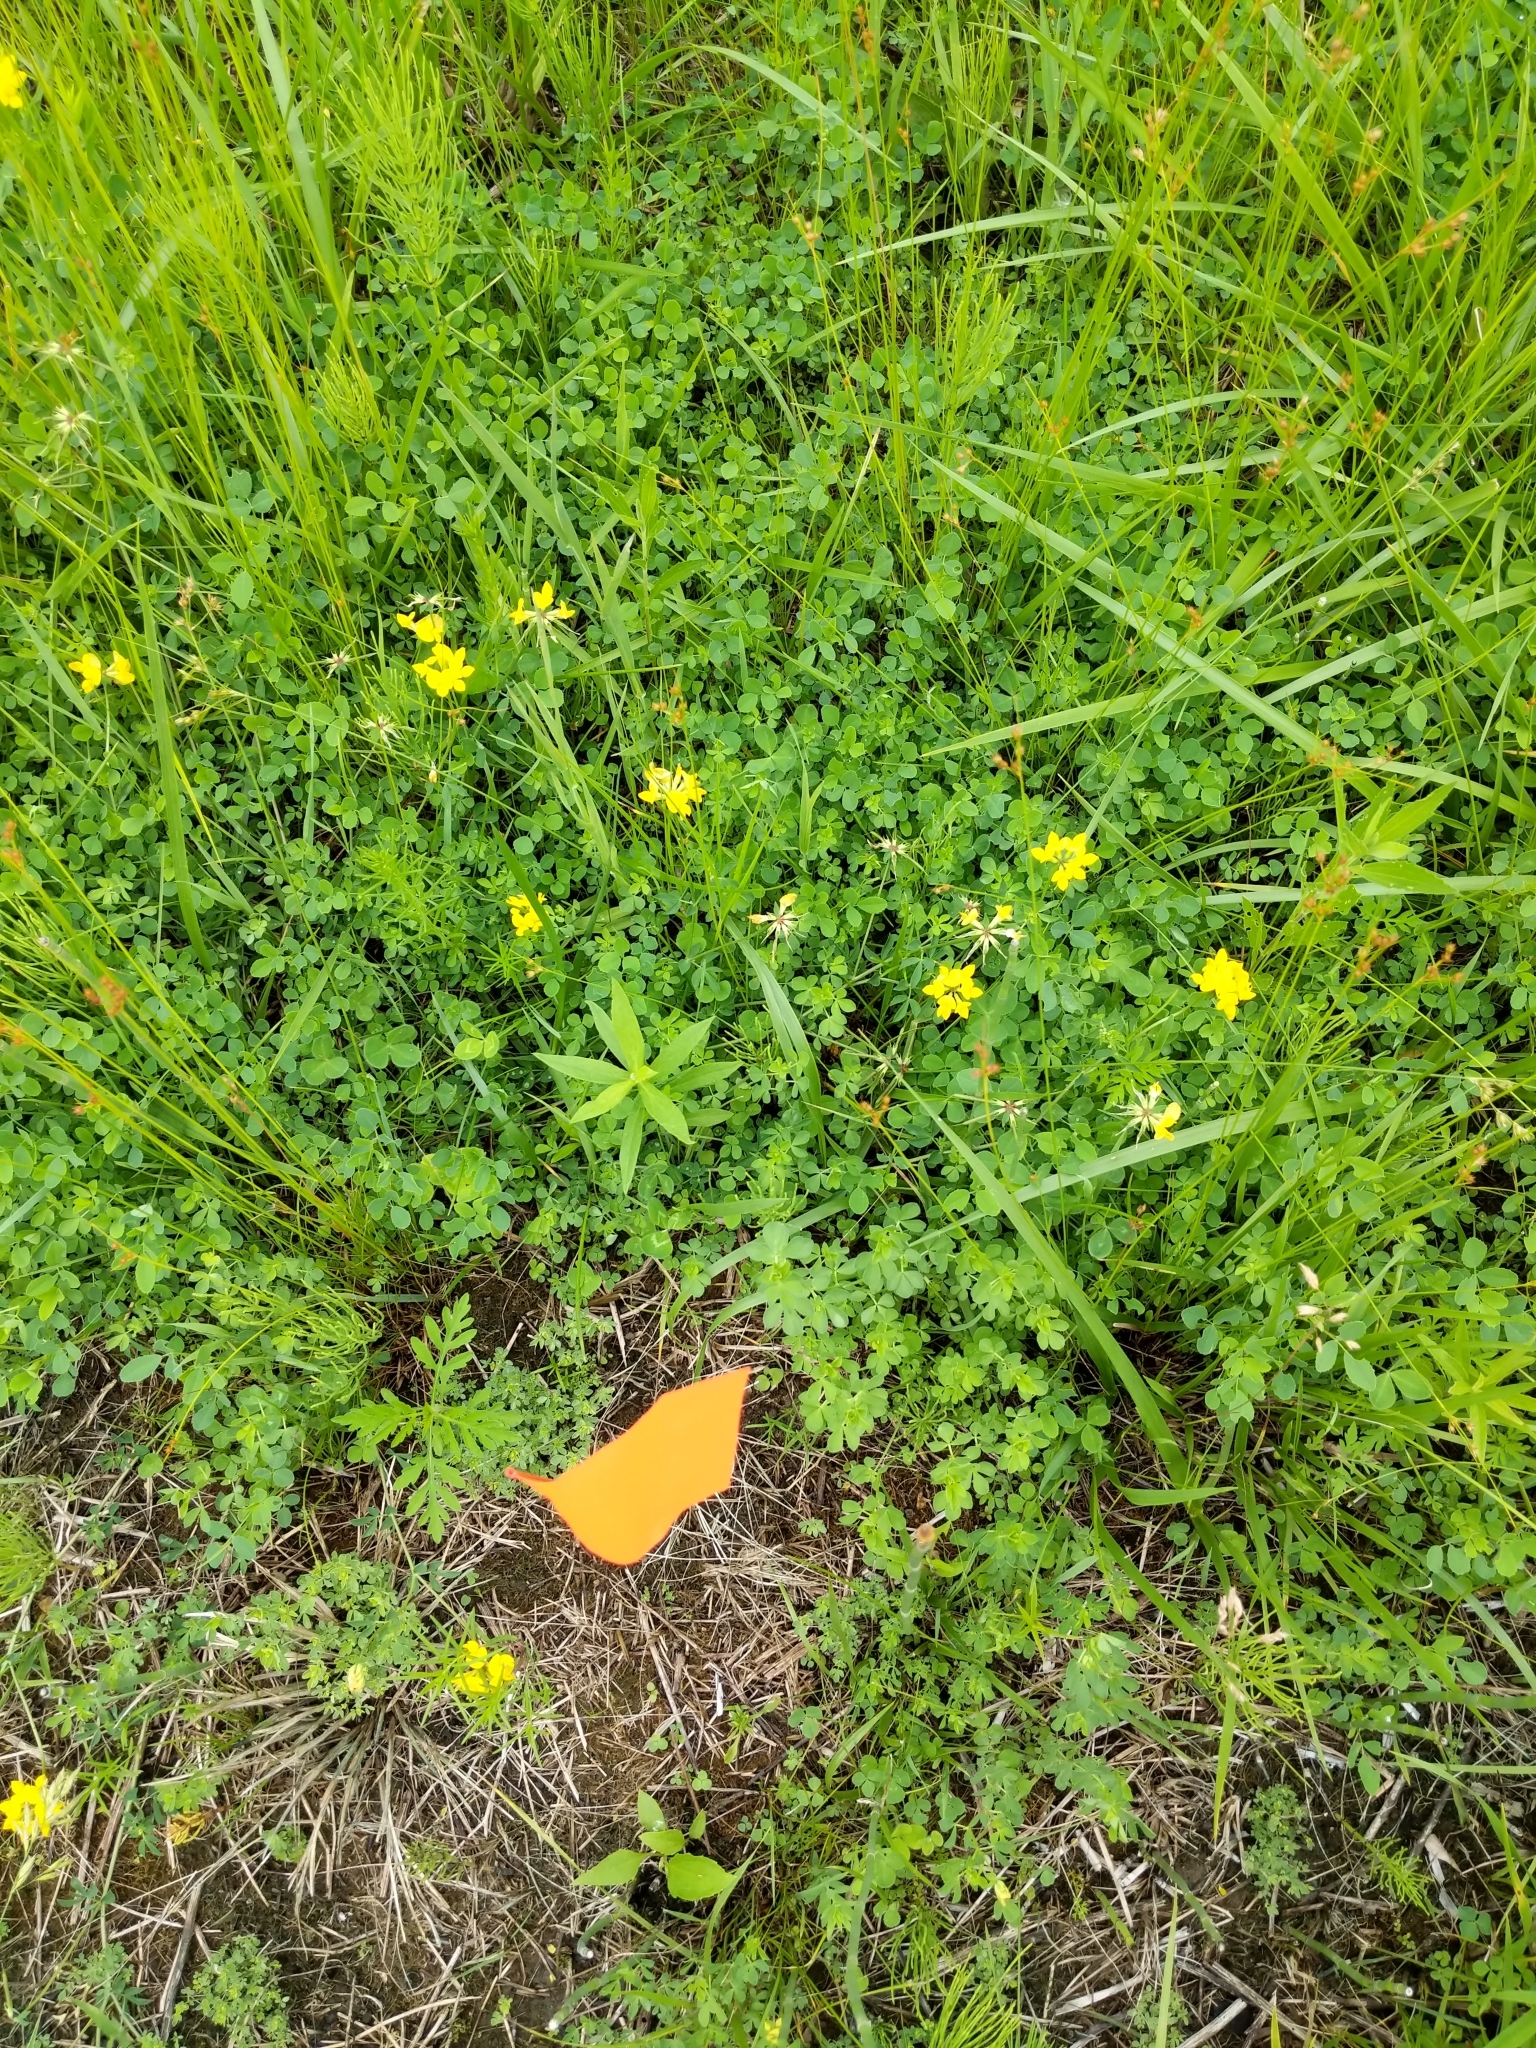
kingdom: Plantae
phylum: Tracheophyta
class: Magnoliopsida
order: Fabales
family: Fabaceae
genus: Lotus
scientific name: Lotus corniculatus
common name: Common bird's-foot-trefoil
